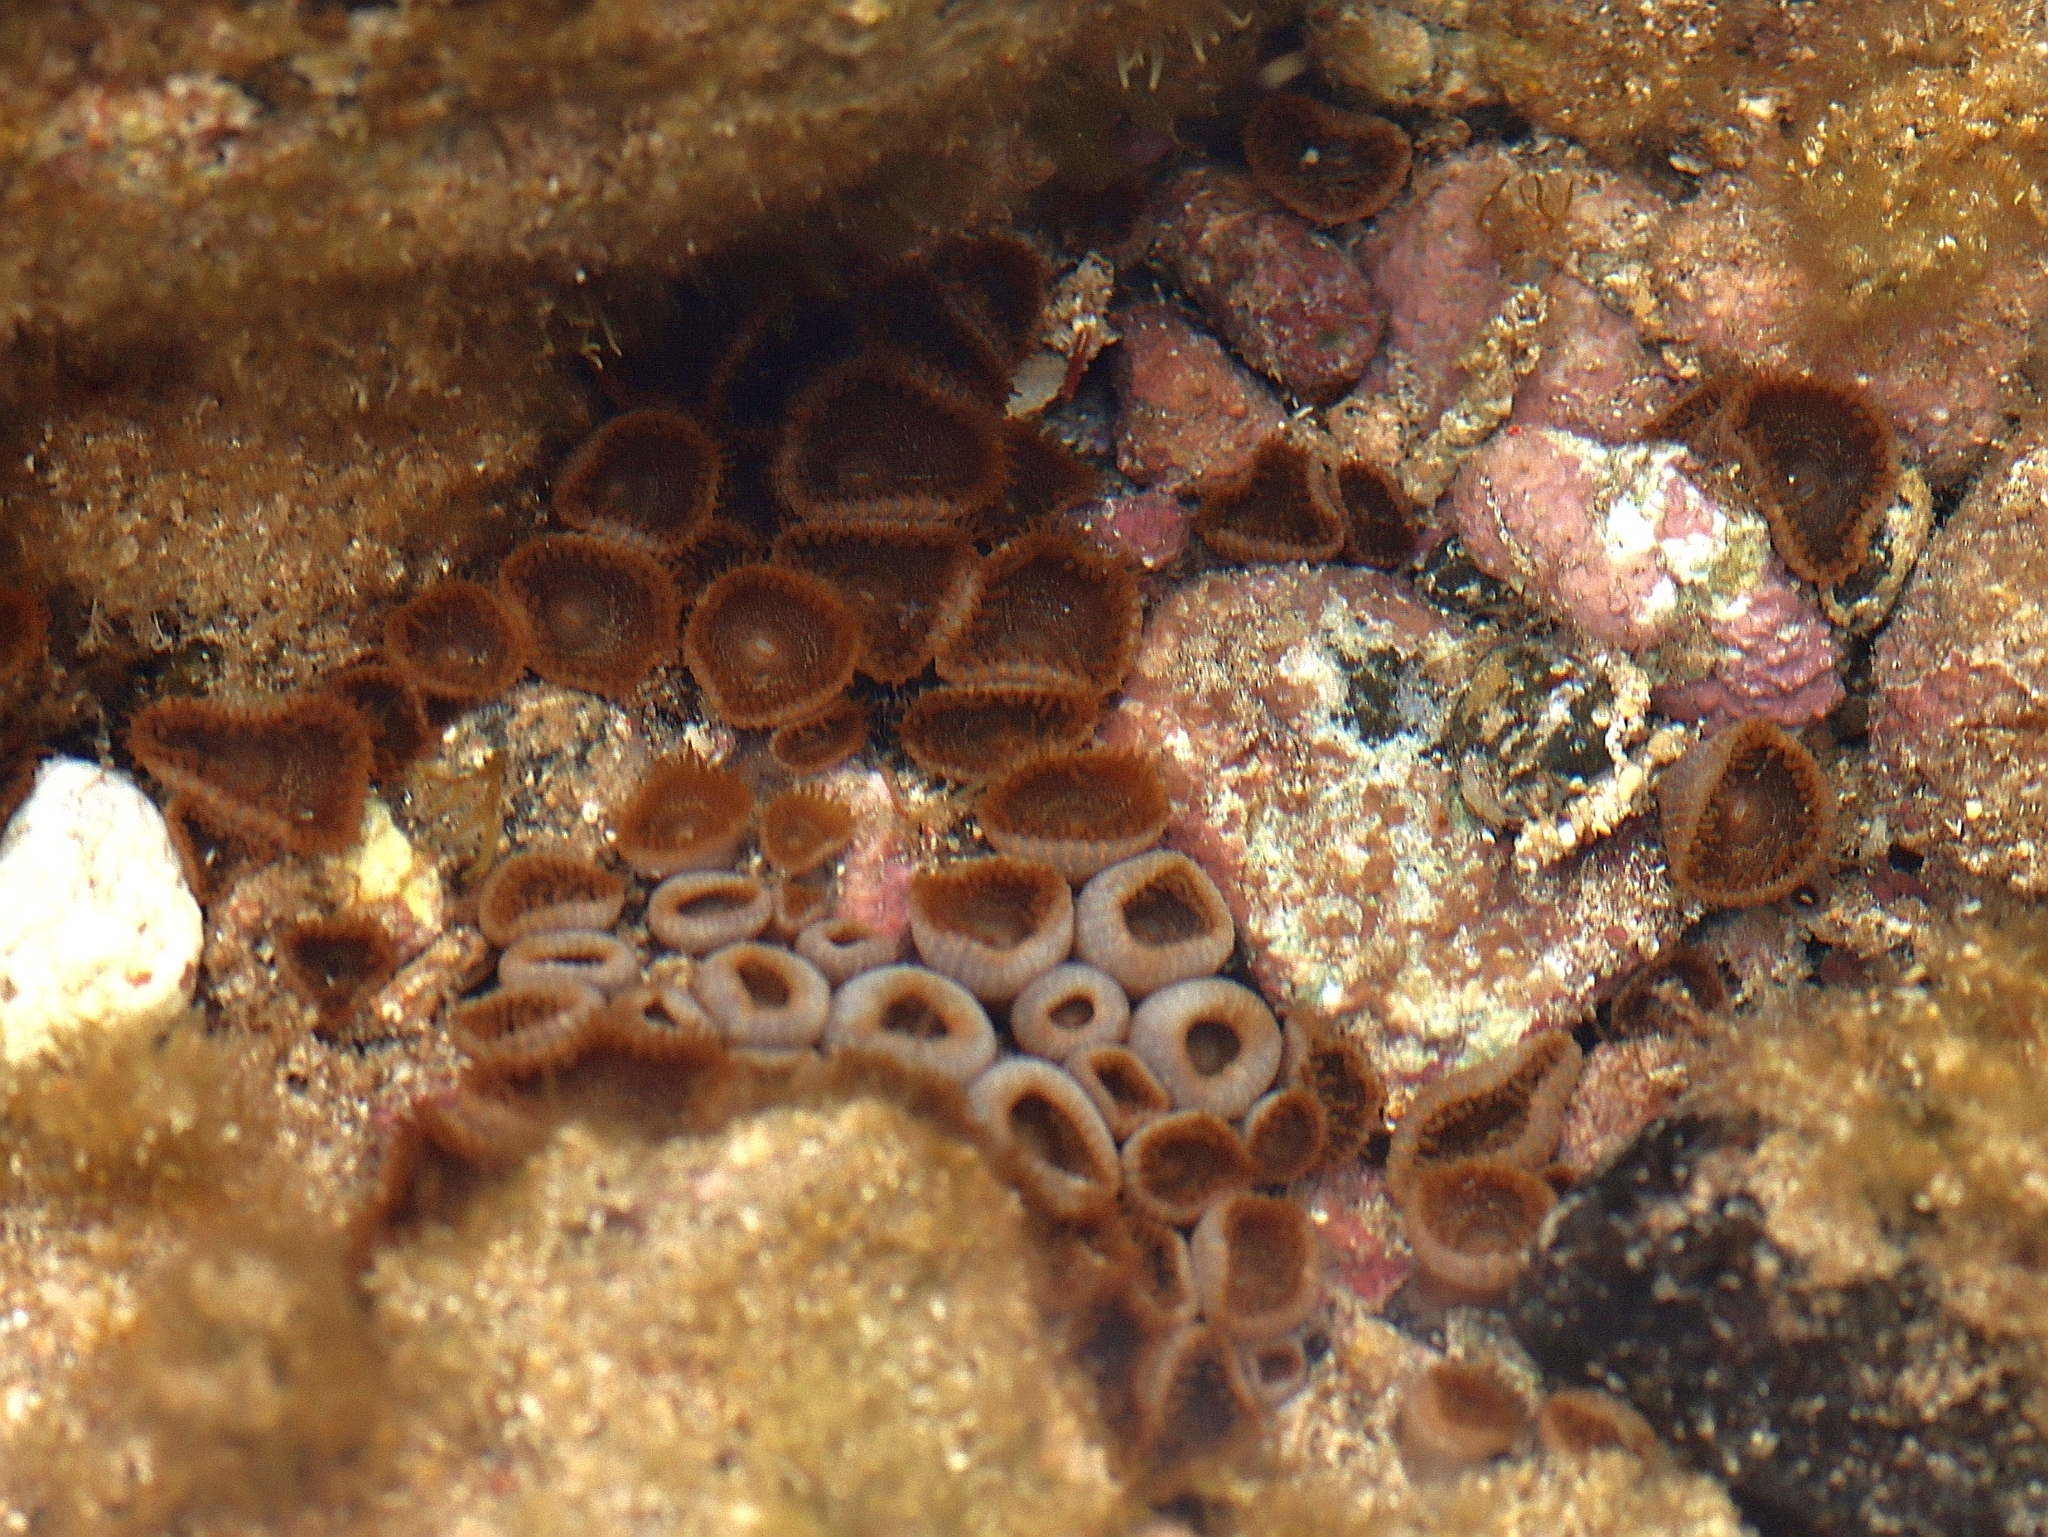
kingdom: Animalia
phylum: Cnidaria
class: Anthozoa
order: Zoantharia
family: Sphenopidae
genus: Palythoa
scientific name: Palythoa grandiflora
